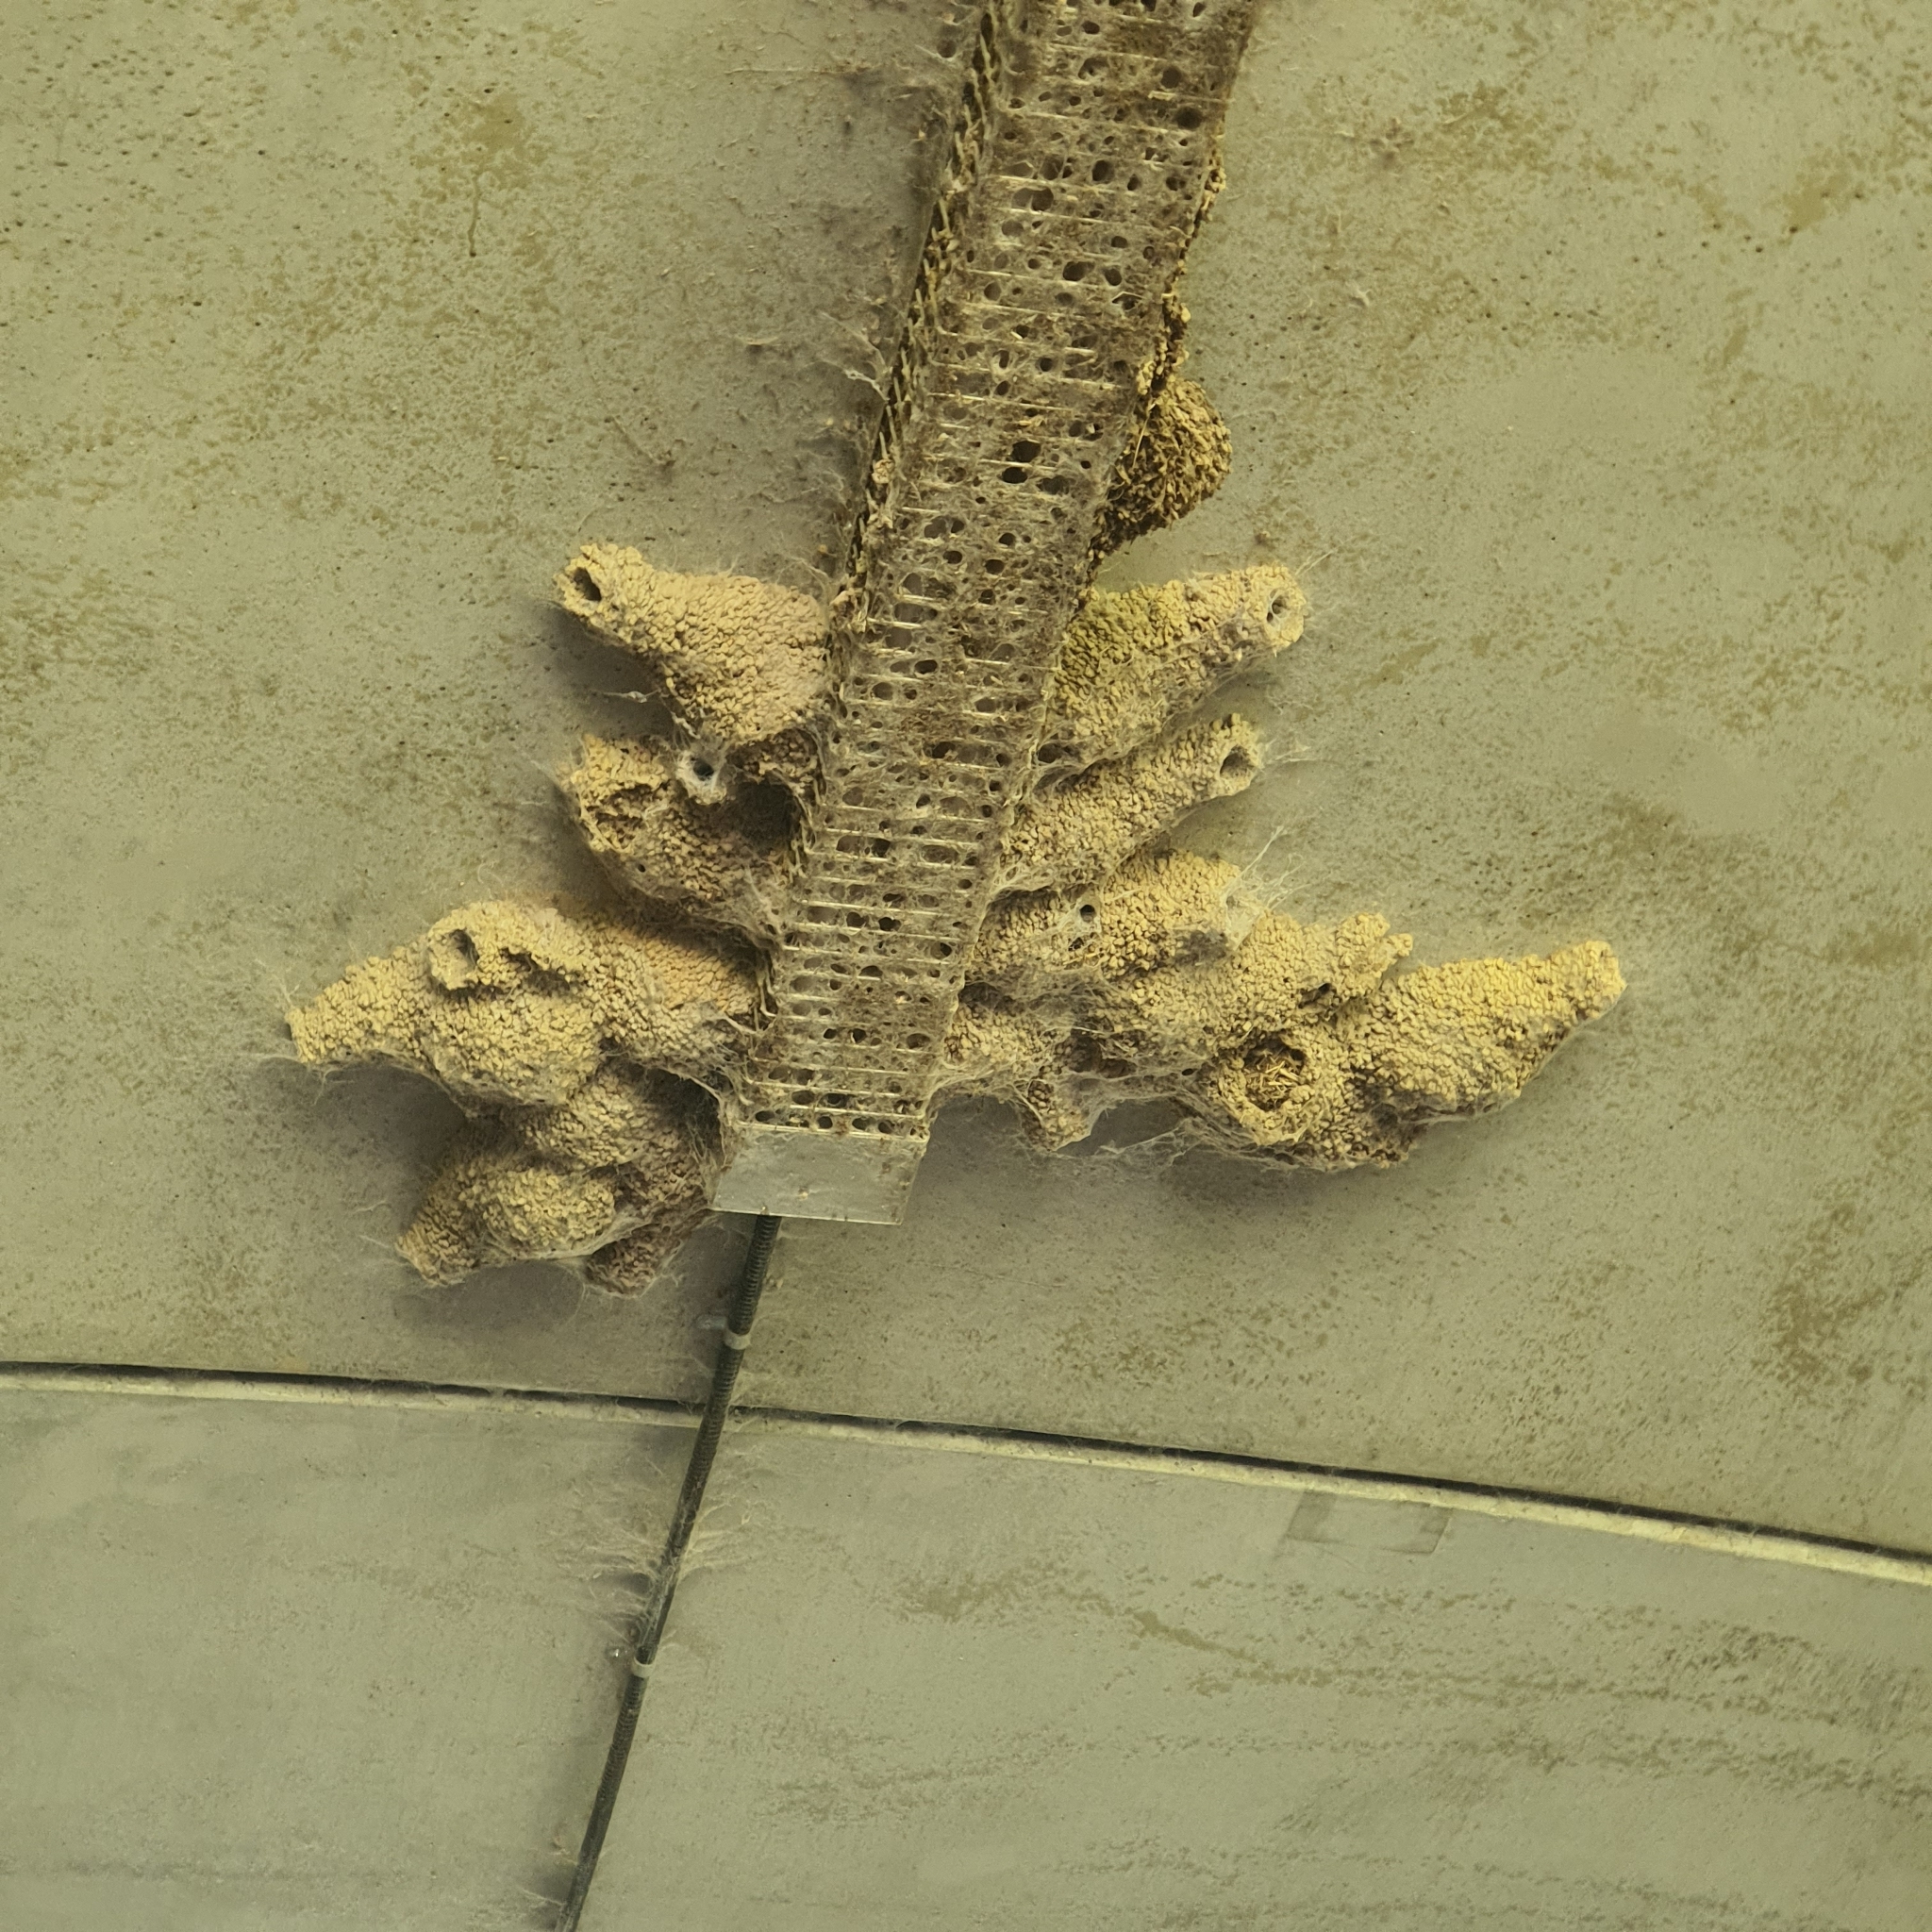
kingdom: Animalia
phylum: Chordata
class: Aves
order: Passeriformes
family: Hirundinidae
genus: Petrochelidon
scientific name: Petrochelidon ariel
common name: Fairy martin
